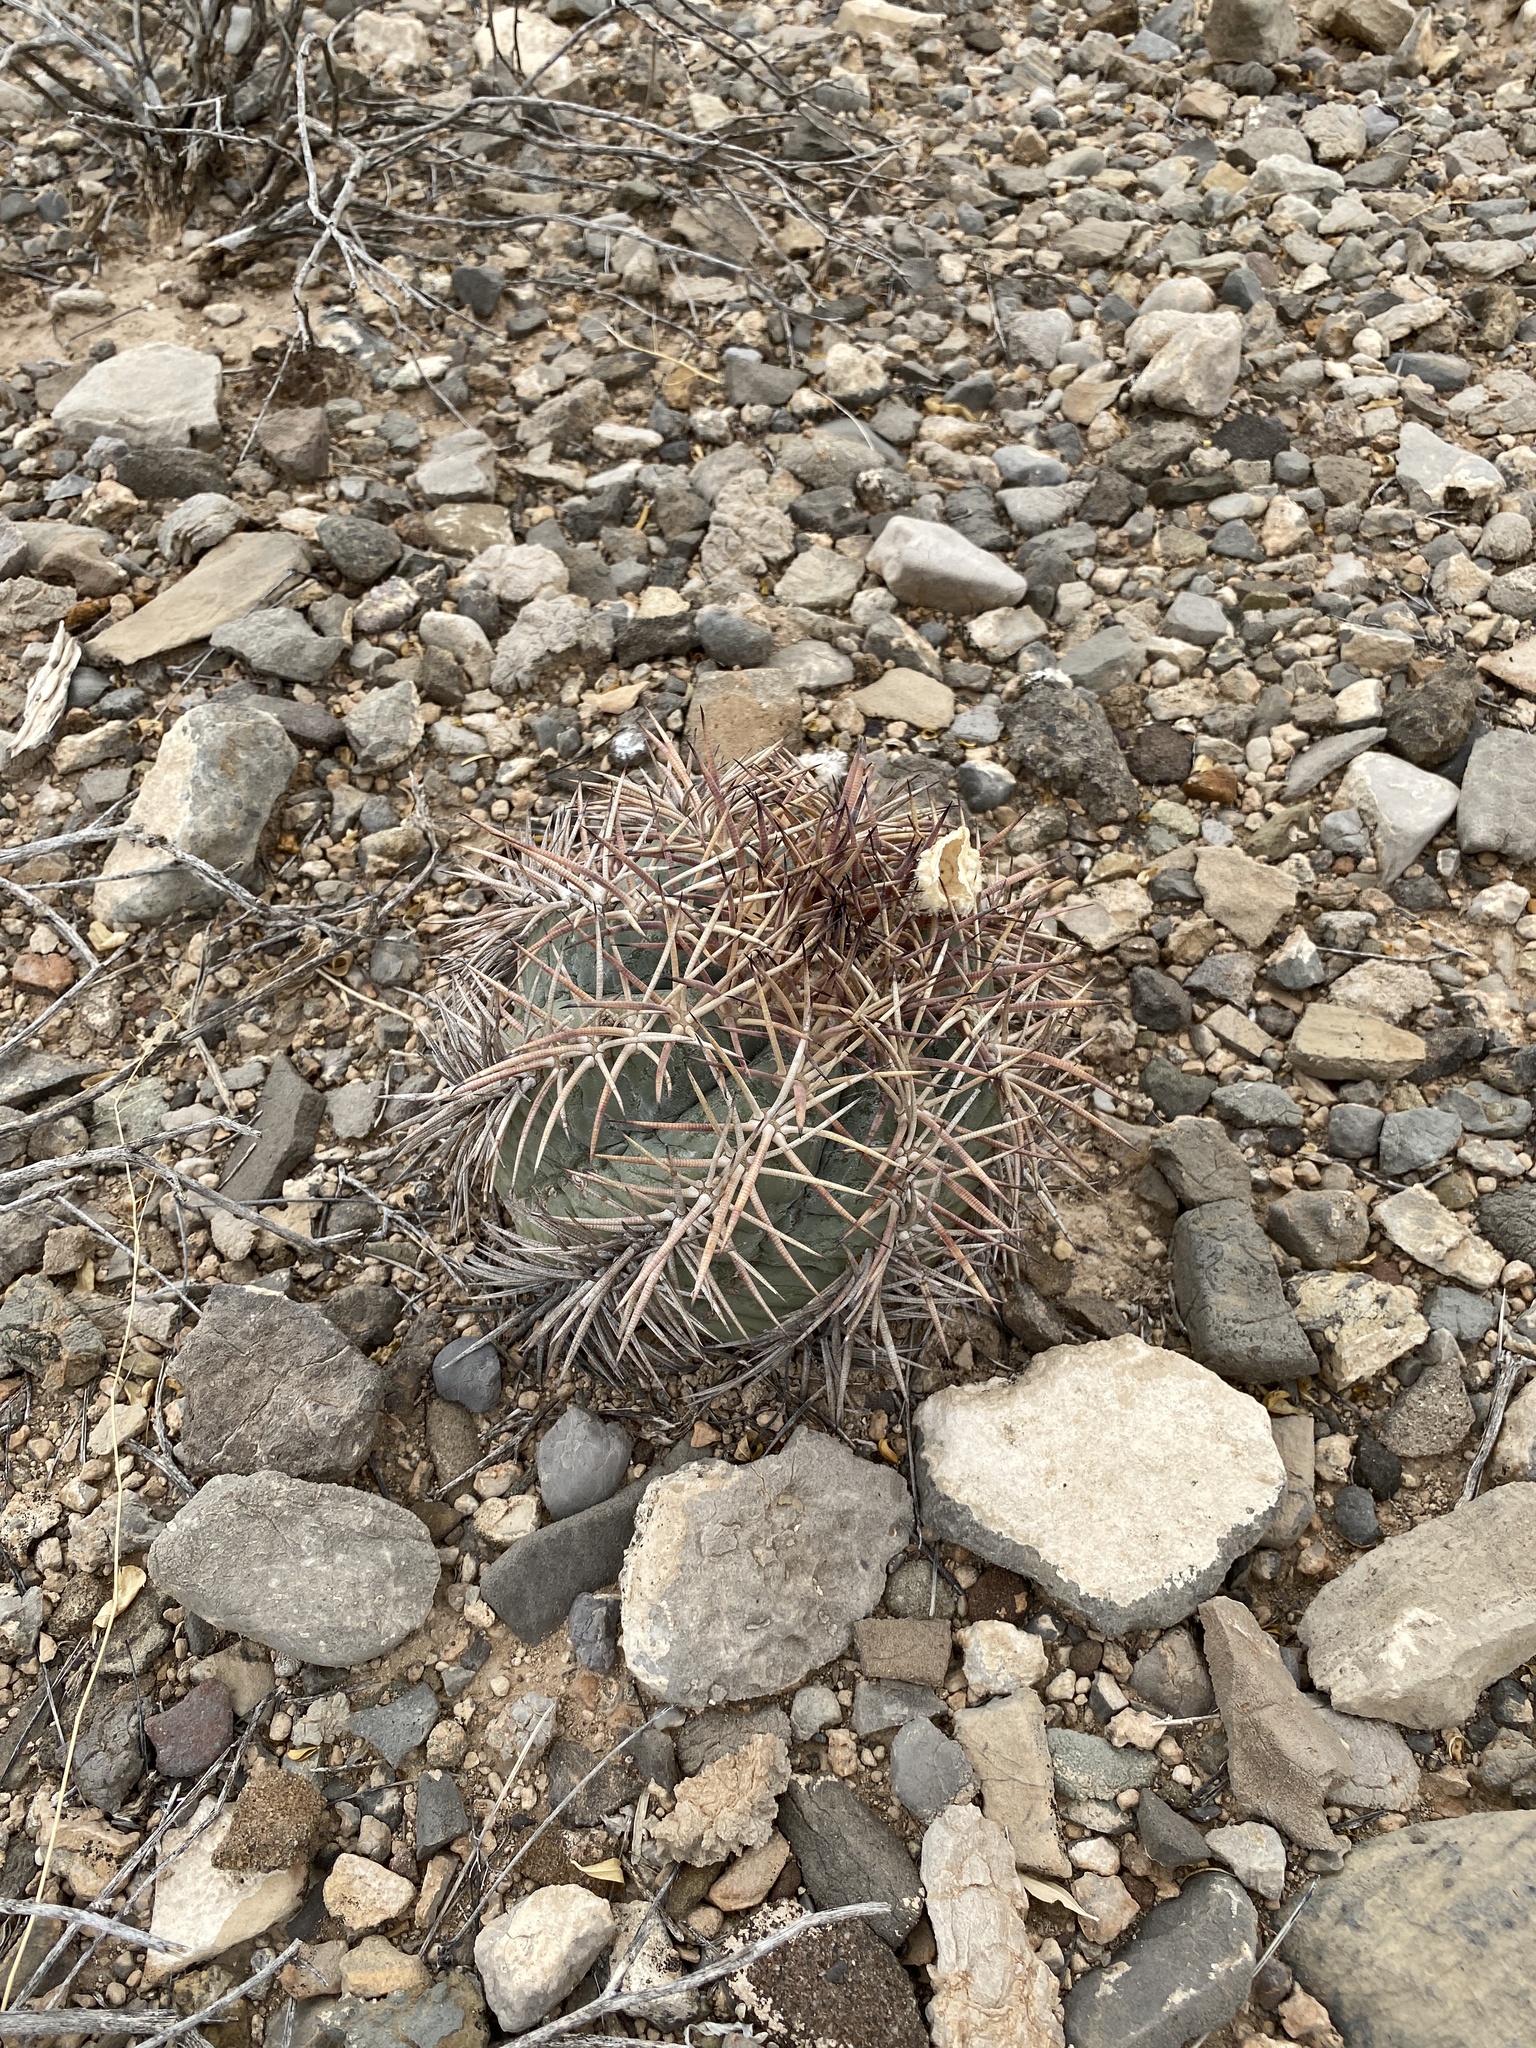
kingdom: Plantae
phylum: Tracheophyta
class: Magnoliopsida
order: Caryophyllales
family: Cactaceae
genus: Echinocactus
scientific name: Echinocactus horizonthalonius
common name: Devilshead
